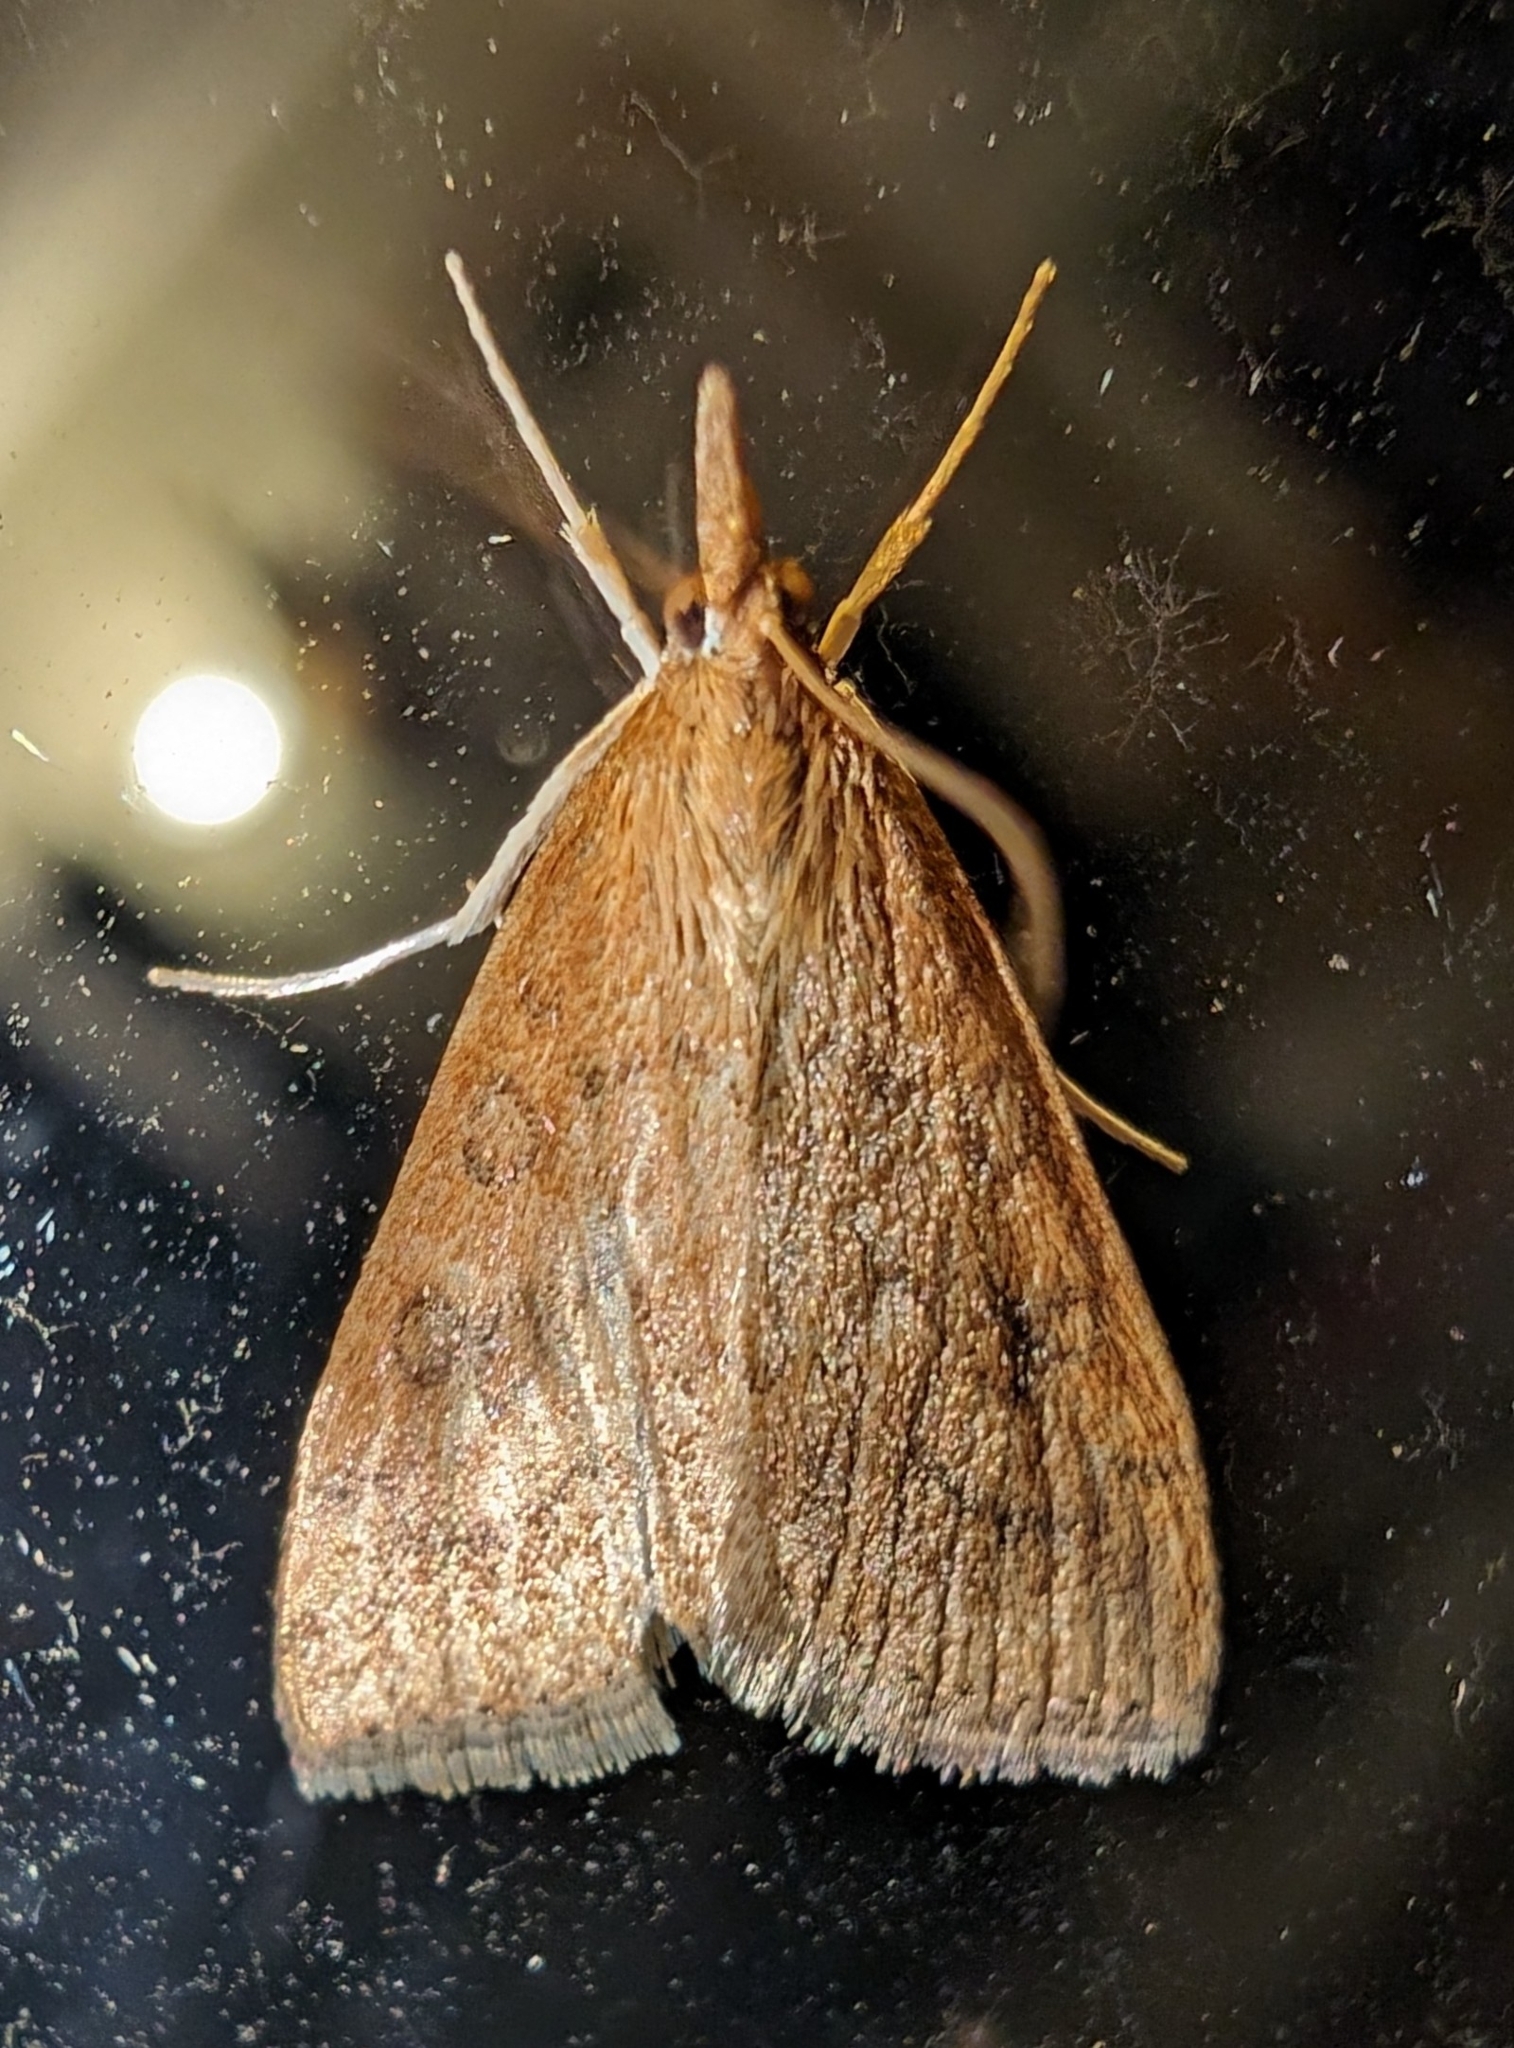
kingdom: Animalia
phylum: Arthropoda
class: Insecta
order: Lepidoptera
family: Crambidae
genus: Udea
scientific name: Udea rubigalis
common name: Celery leaftier moth
